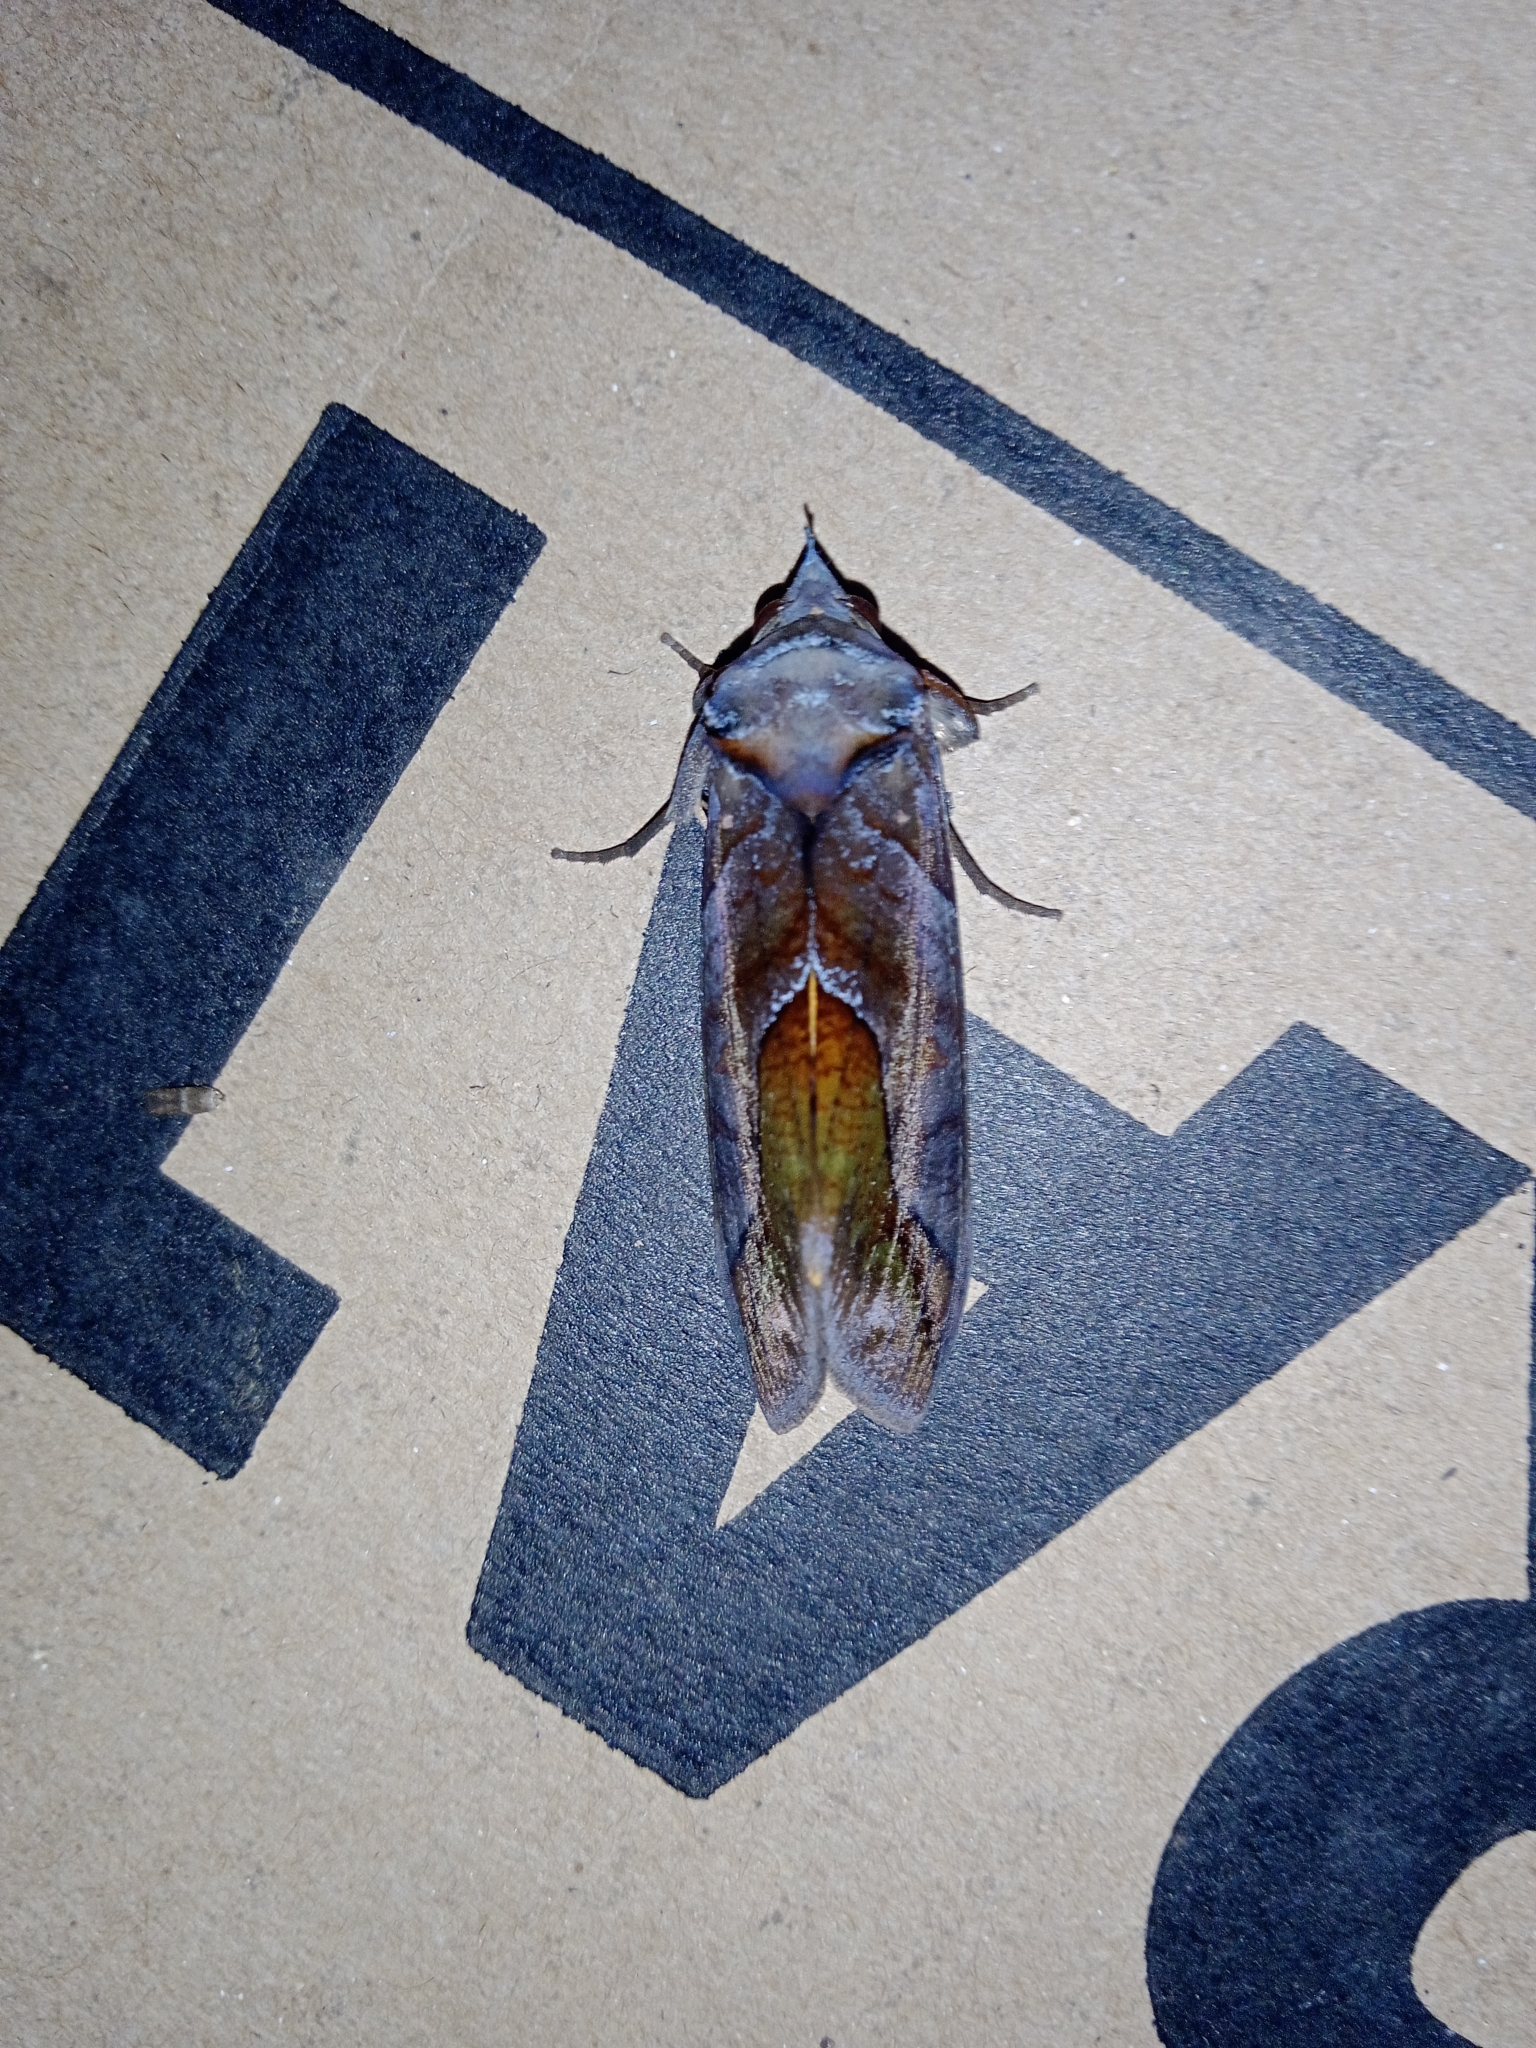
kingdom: Animalia
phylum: Arthropoda
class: Insecta
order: Lepidoptera
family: Erebidae
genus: Eudocima
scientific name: Eudocima homaena
